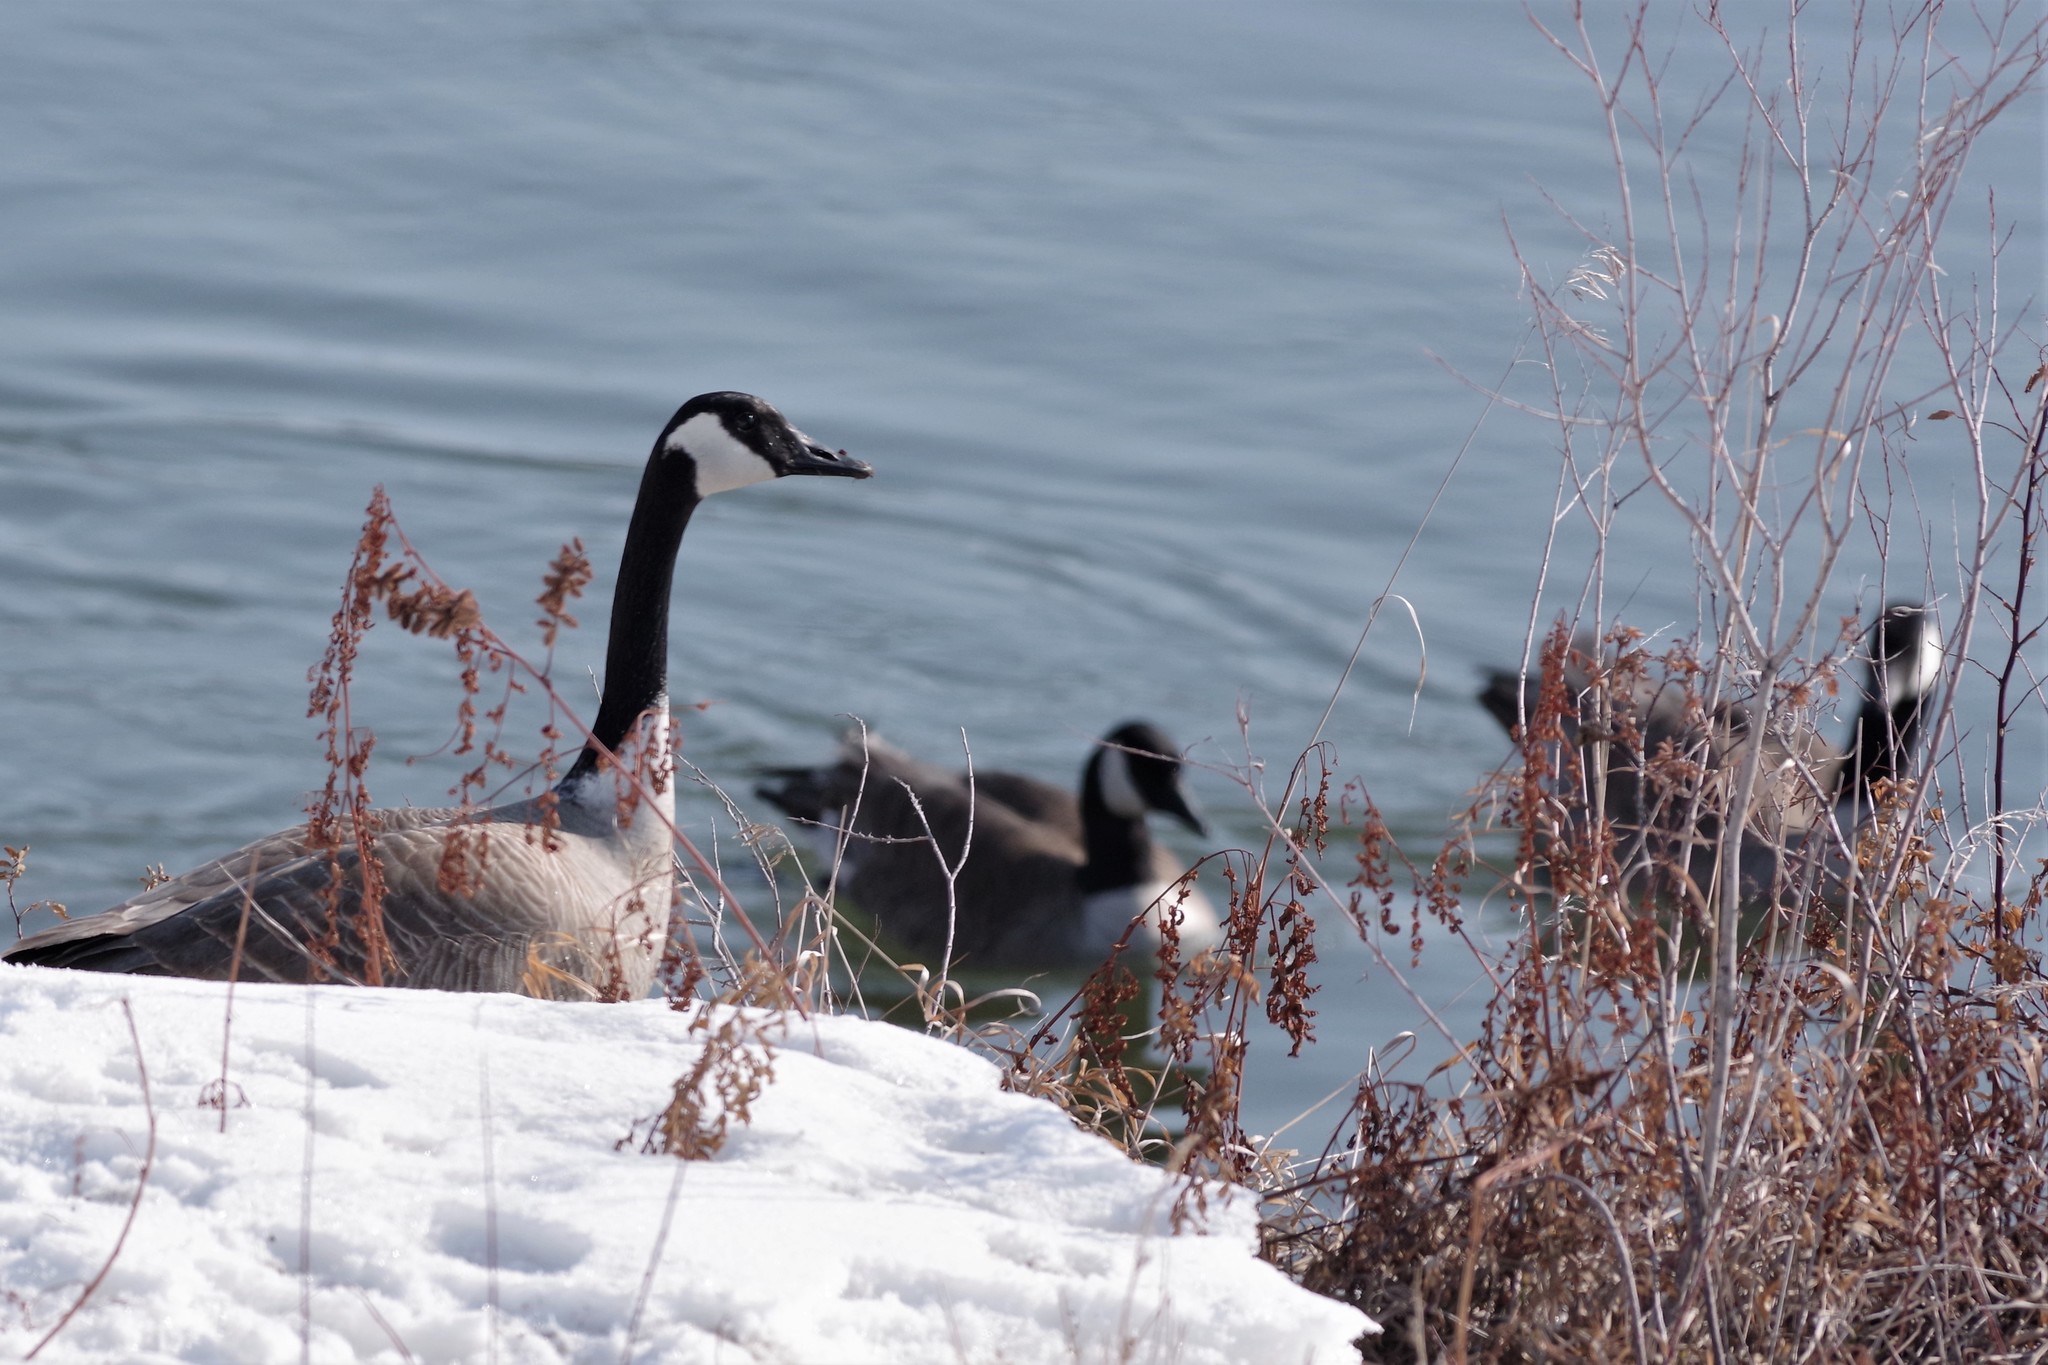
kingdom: Animalia
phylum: Chordata
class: Aves
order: Anseriformes
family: Anatidae
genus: Branta
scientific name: Branta canadensis
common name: Canada goose
